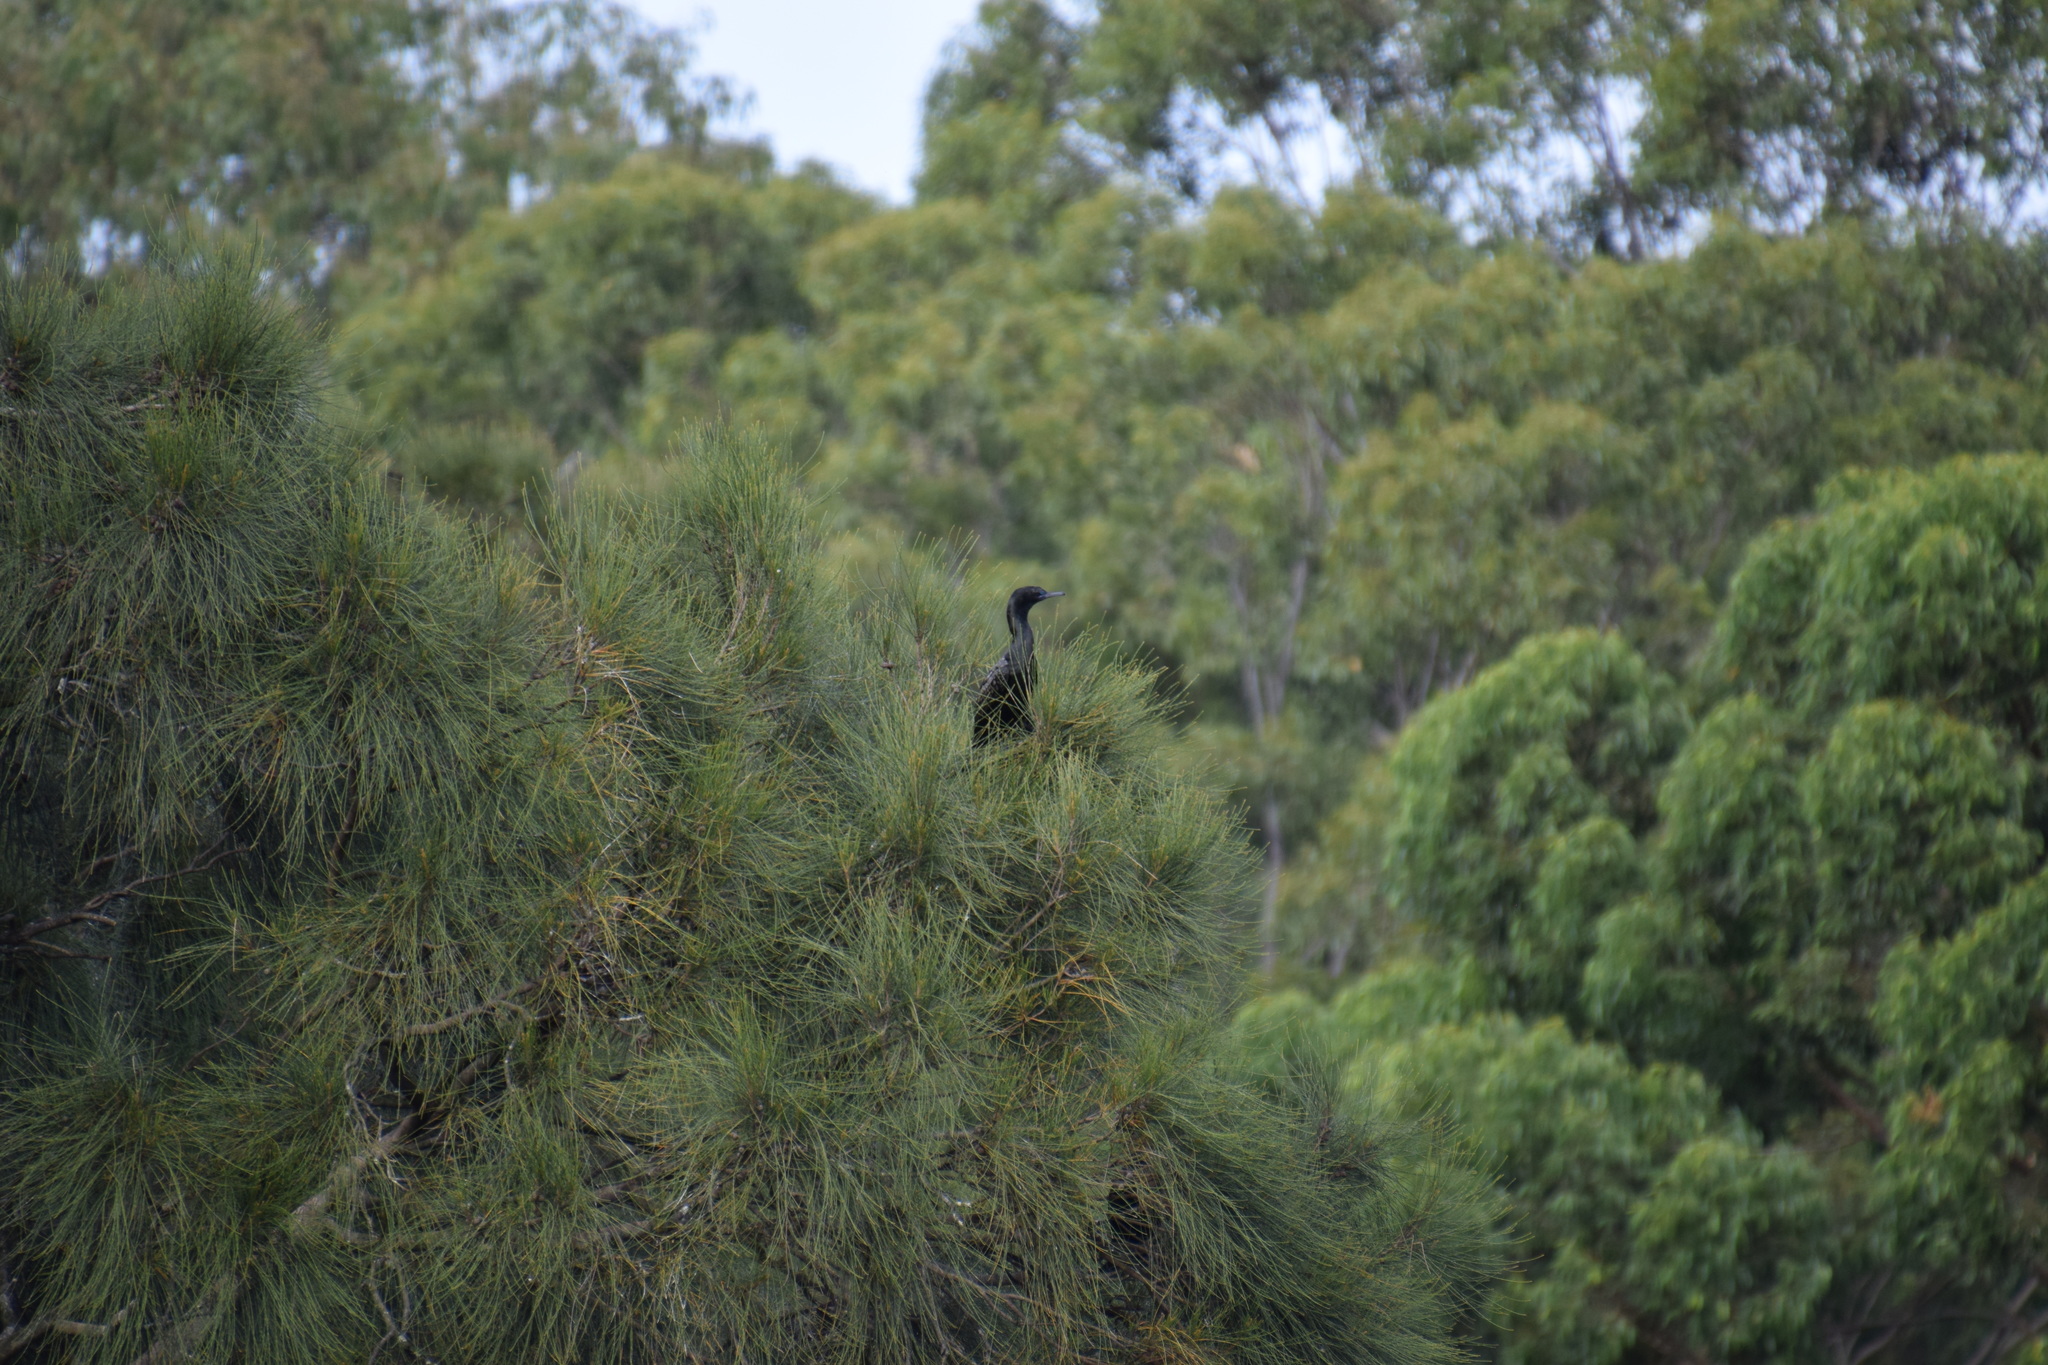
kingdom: Animalia
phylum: Chordata
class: Aves
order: Suliformes
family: Phalacrocoracidae
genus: Phalacrocorax
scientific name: Phalacrocorax sulcirostris
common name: Little black cormorant
